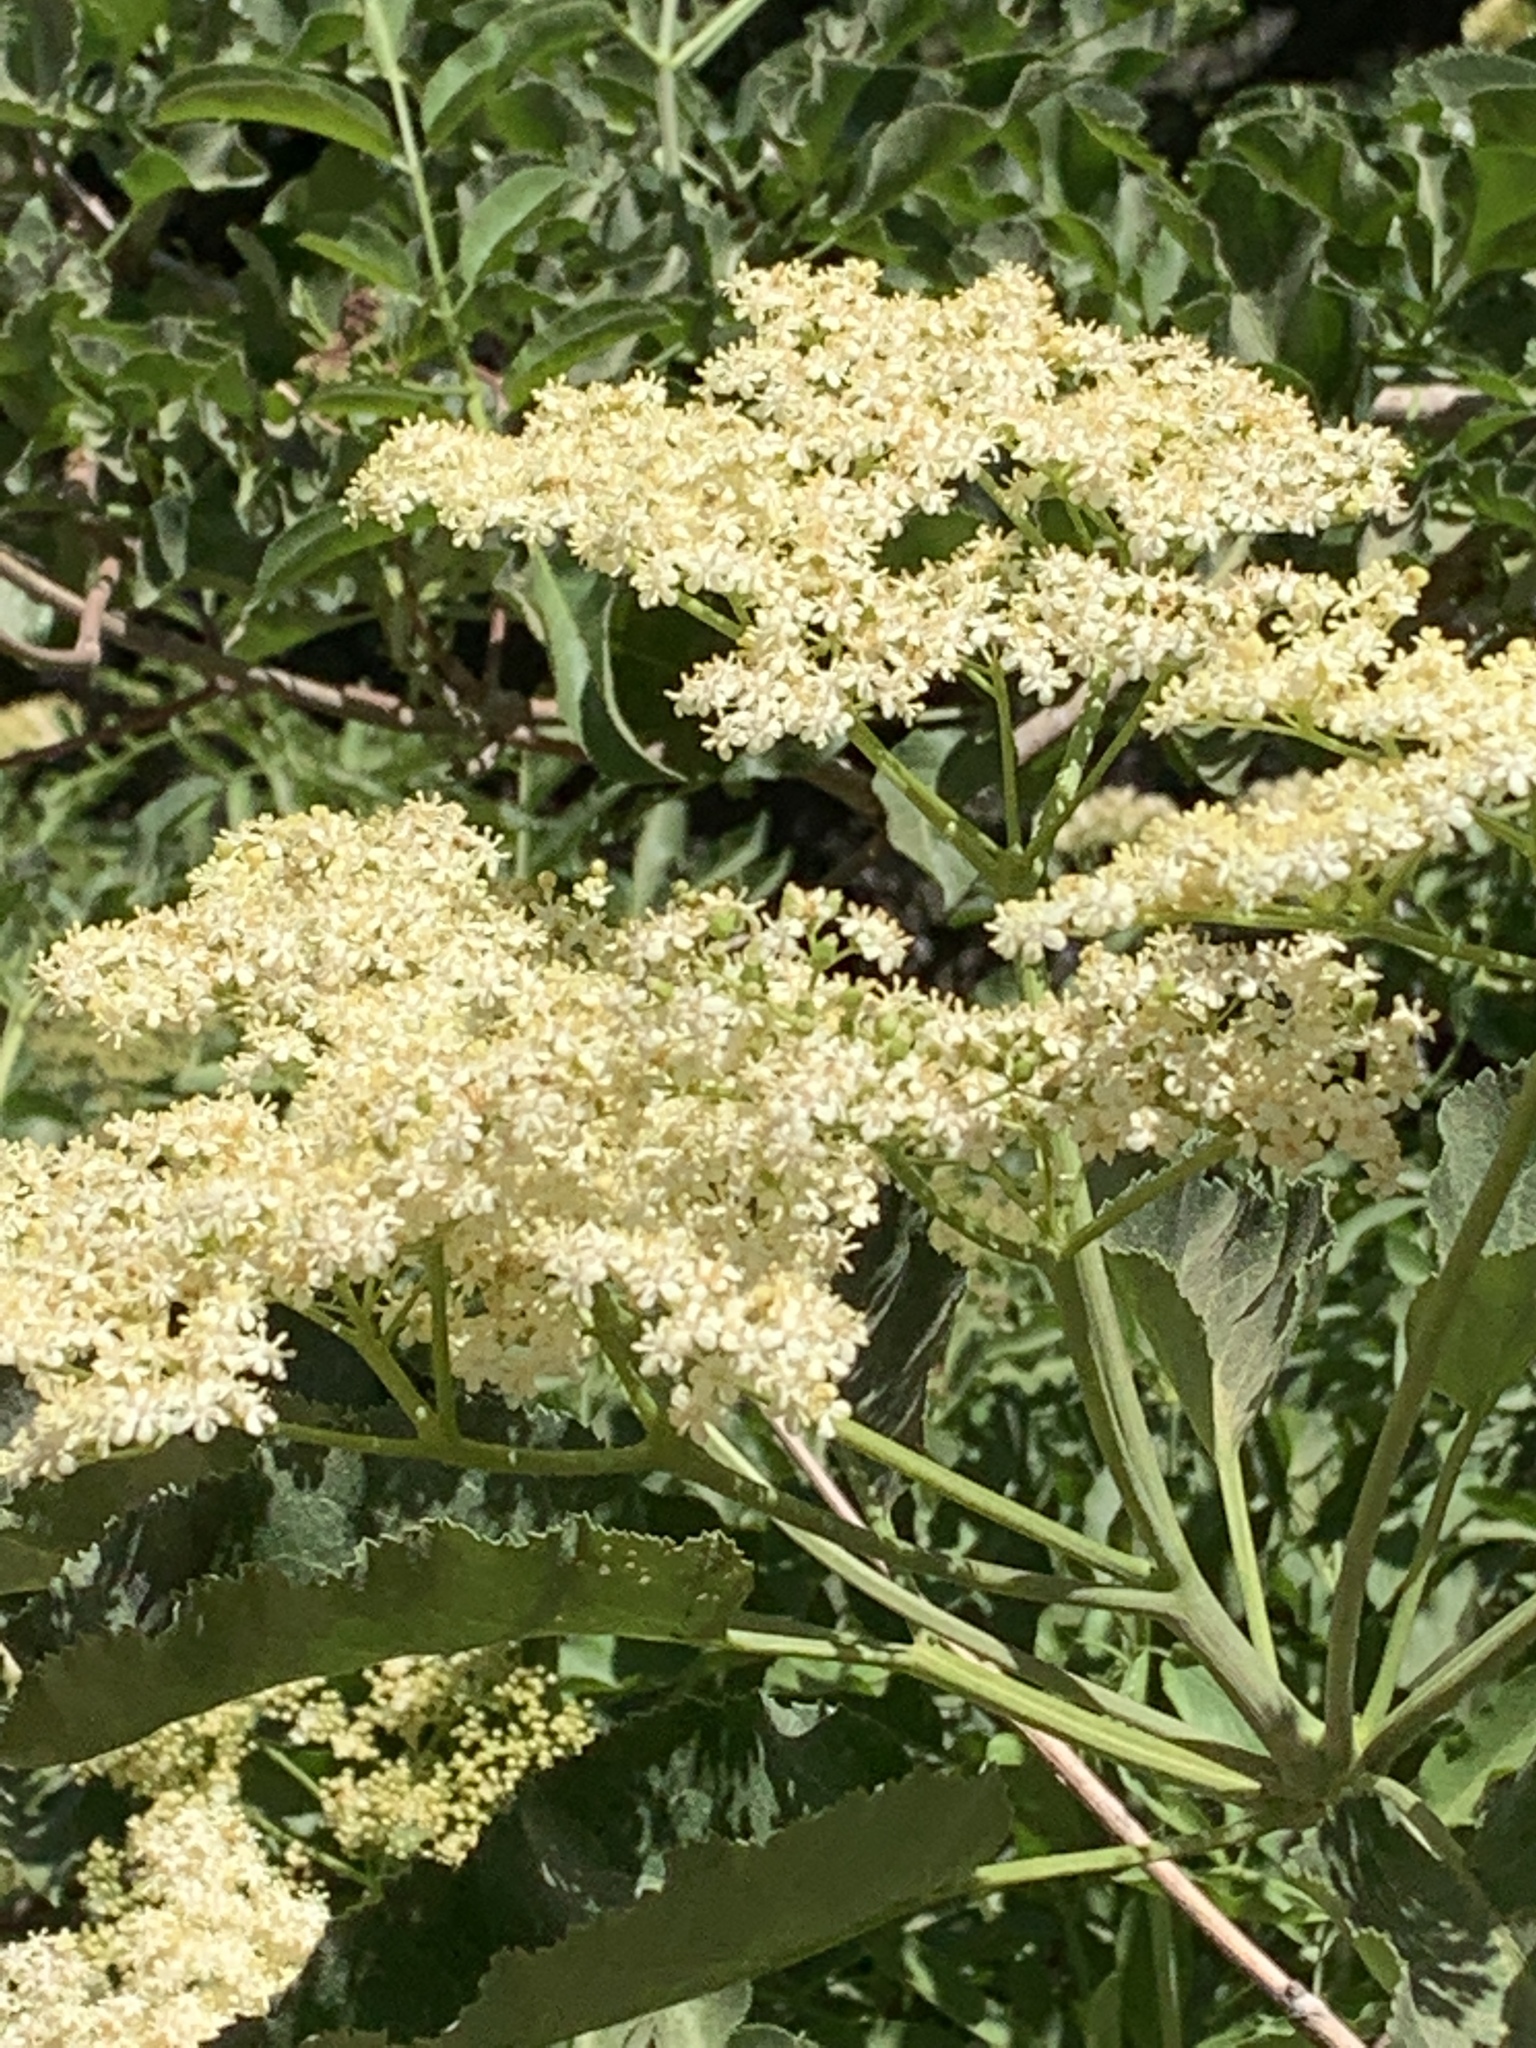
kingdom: Plantae
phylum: Tracheophyta
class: Magnoliopsida
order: Dipsacales
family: Viburnaceae
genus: Sambucus
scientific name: Sambucus cerulea
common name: Blue elder
